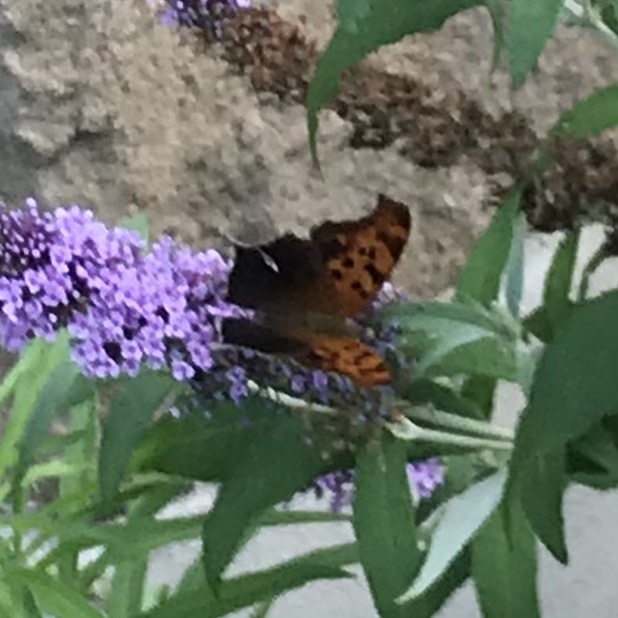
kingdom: Animalia
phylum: Arthropoda
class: Insecta
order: Lepidoptera
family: Nymphalidae
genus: Polygonia
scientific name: Polygonia interrogationis
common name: Question mark
